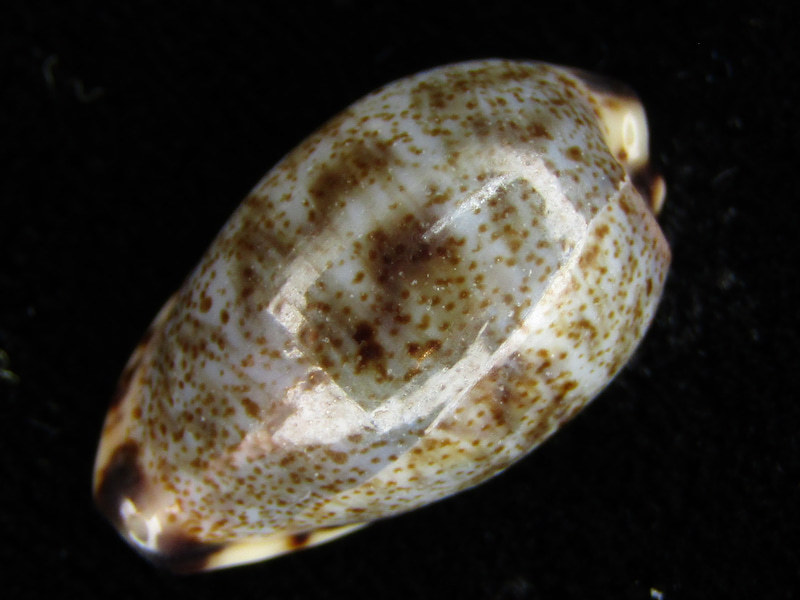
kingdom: Animalia
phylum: Mollusca
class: Gastropoda
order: Littorinimorpha
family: Cypraeidae
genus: Purpuradusta
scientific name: Purpuradusta gracilis
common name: Graceful cowrie
